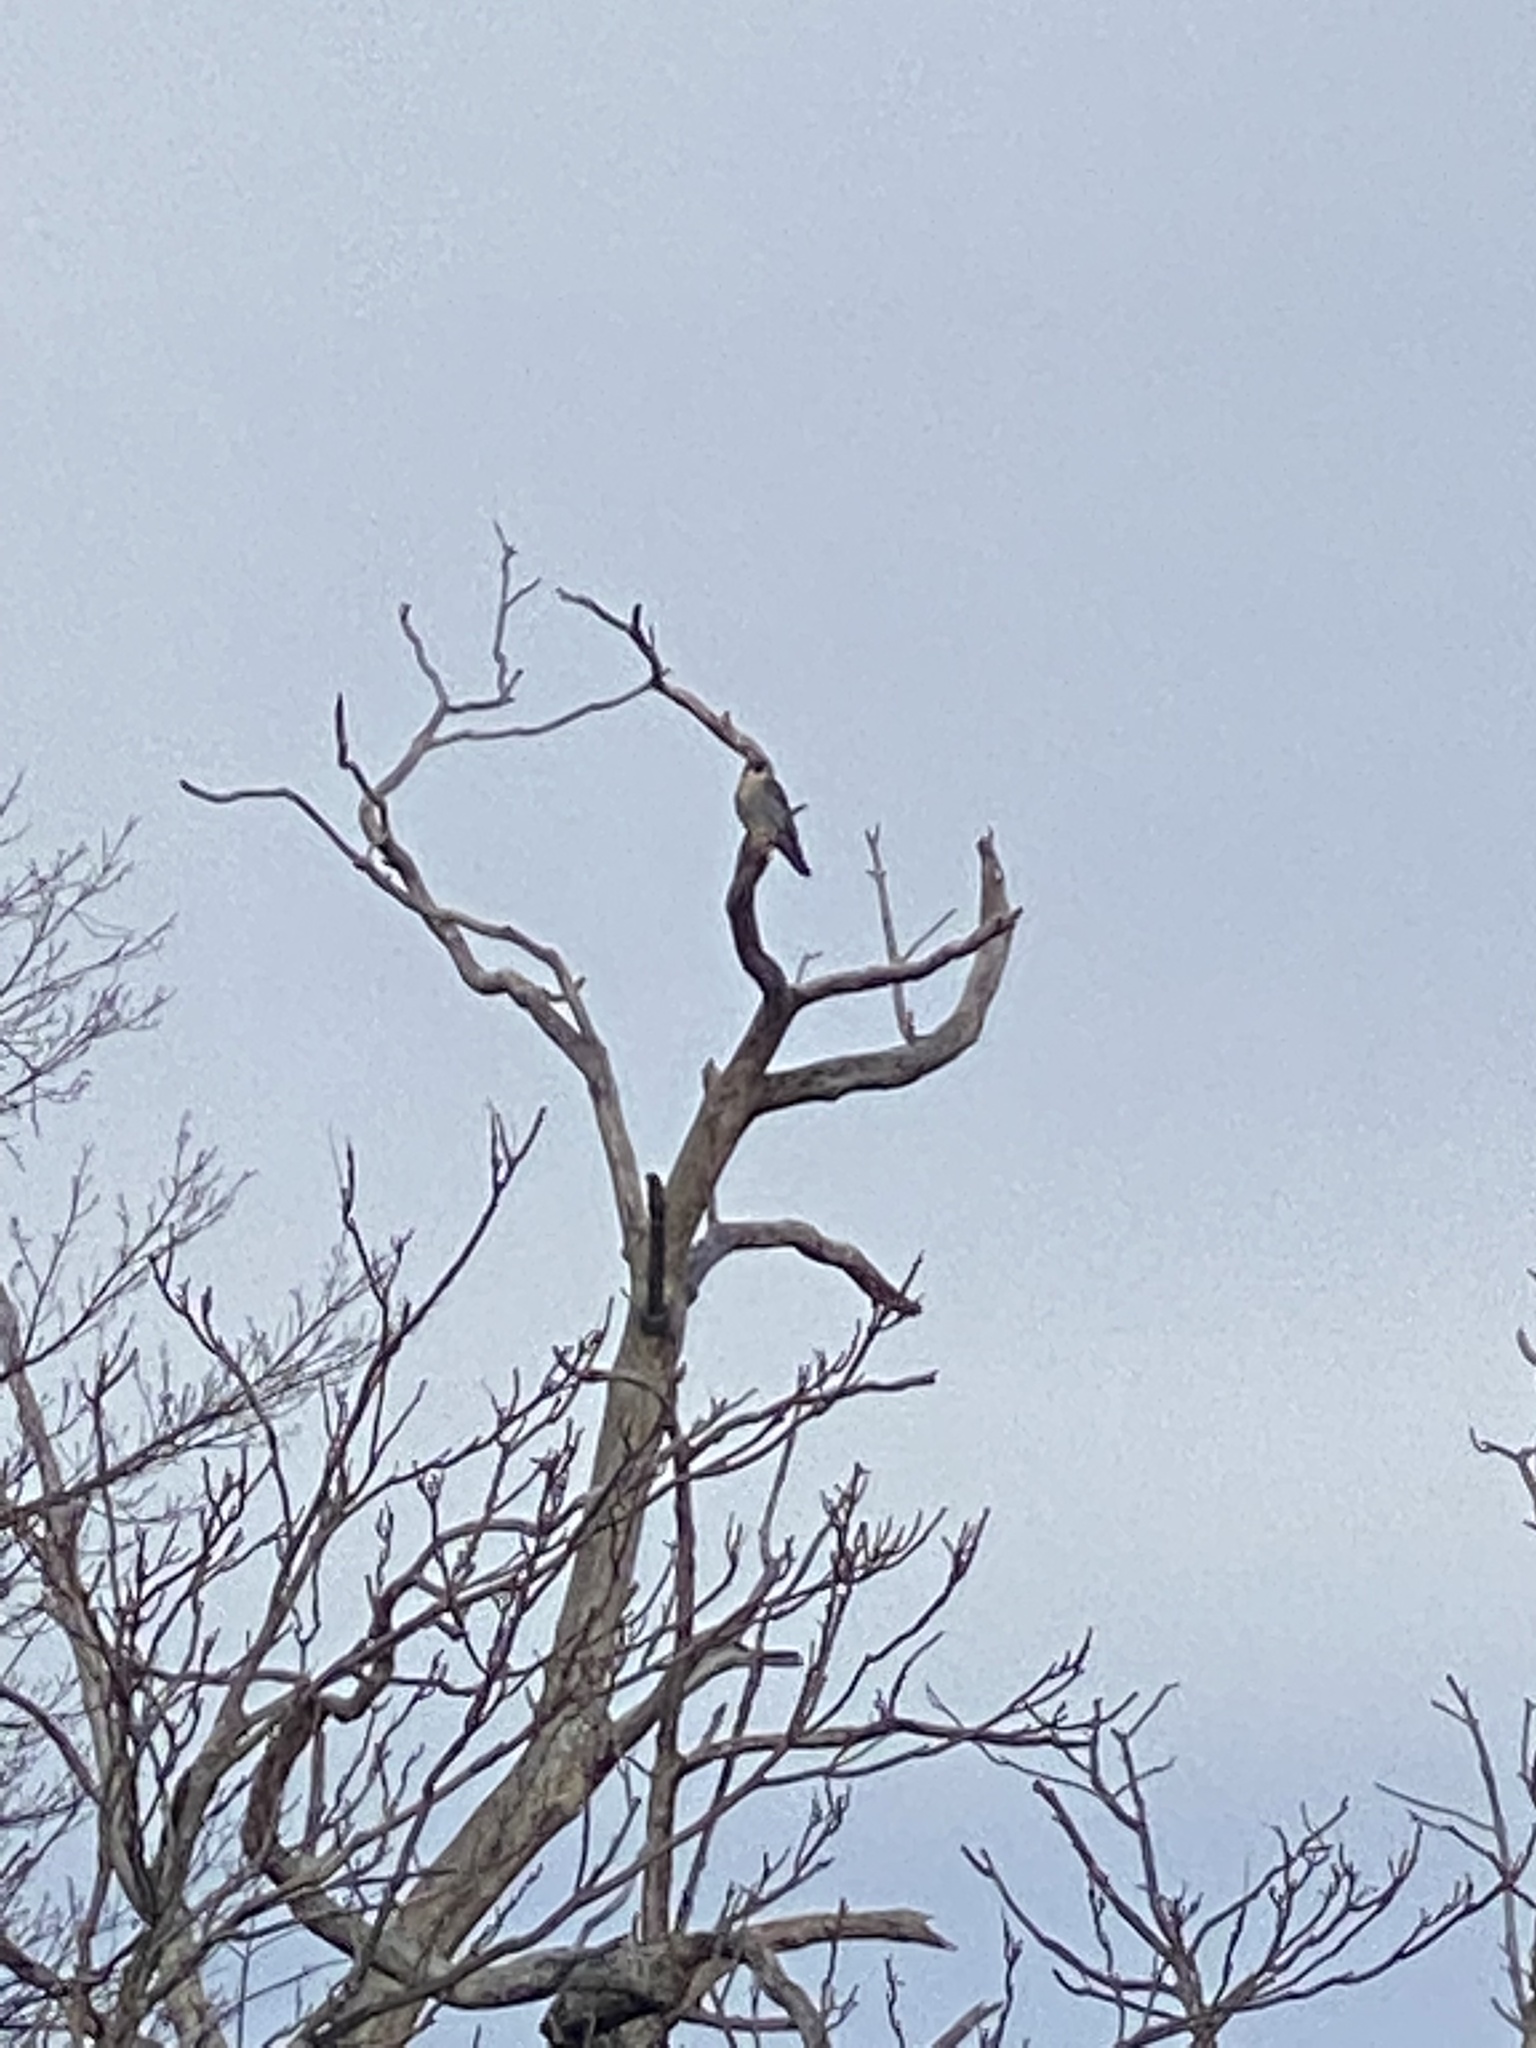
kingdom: Animalia
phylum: Chordata
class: Aves
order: Falconiformes
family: Falconidae
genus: Falco
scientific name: Falco peregrinus
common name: Peregrine falcon
